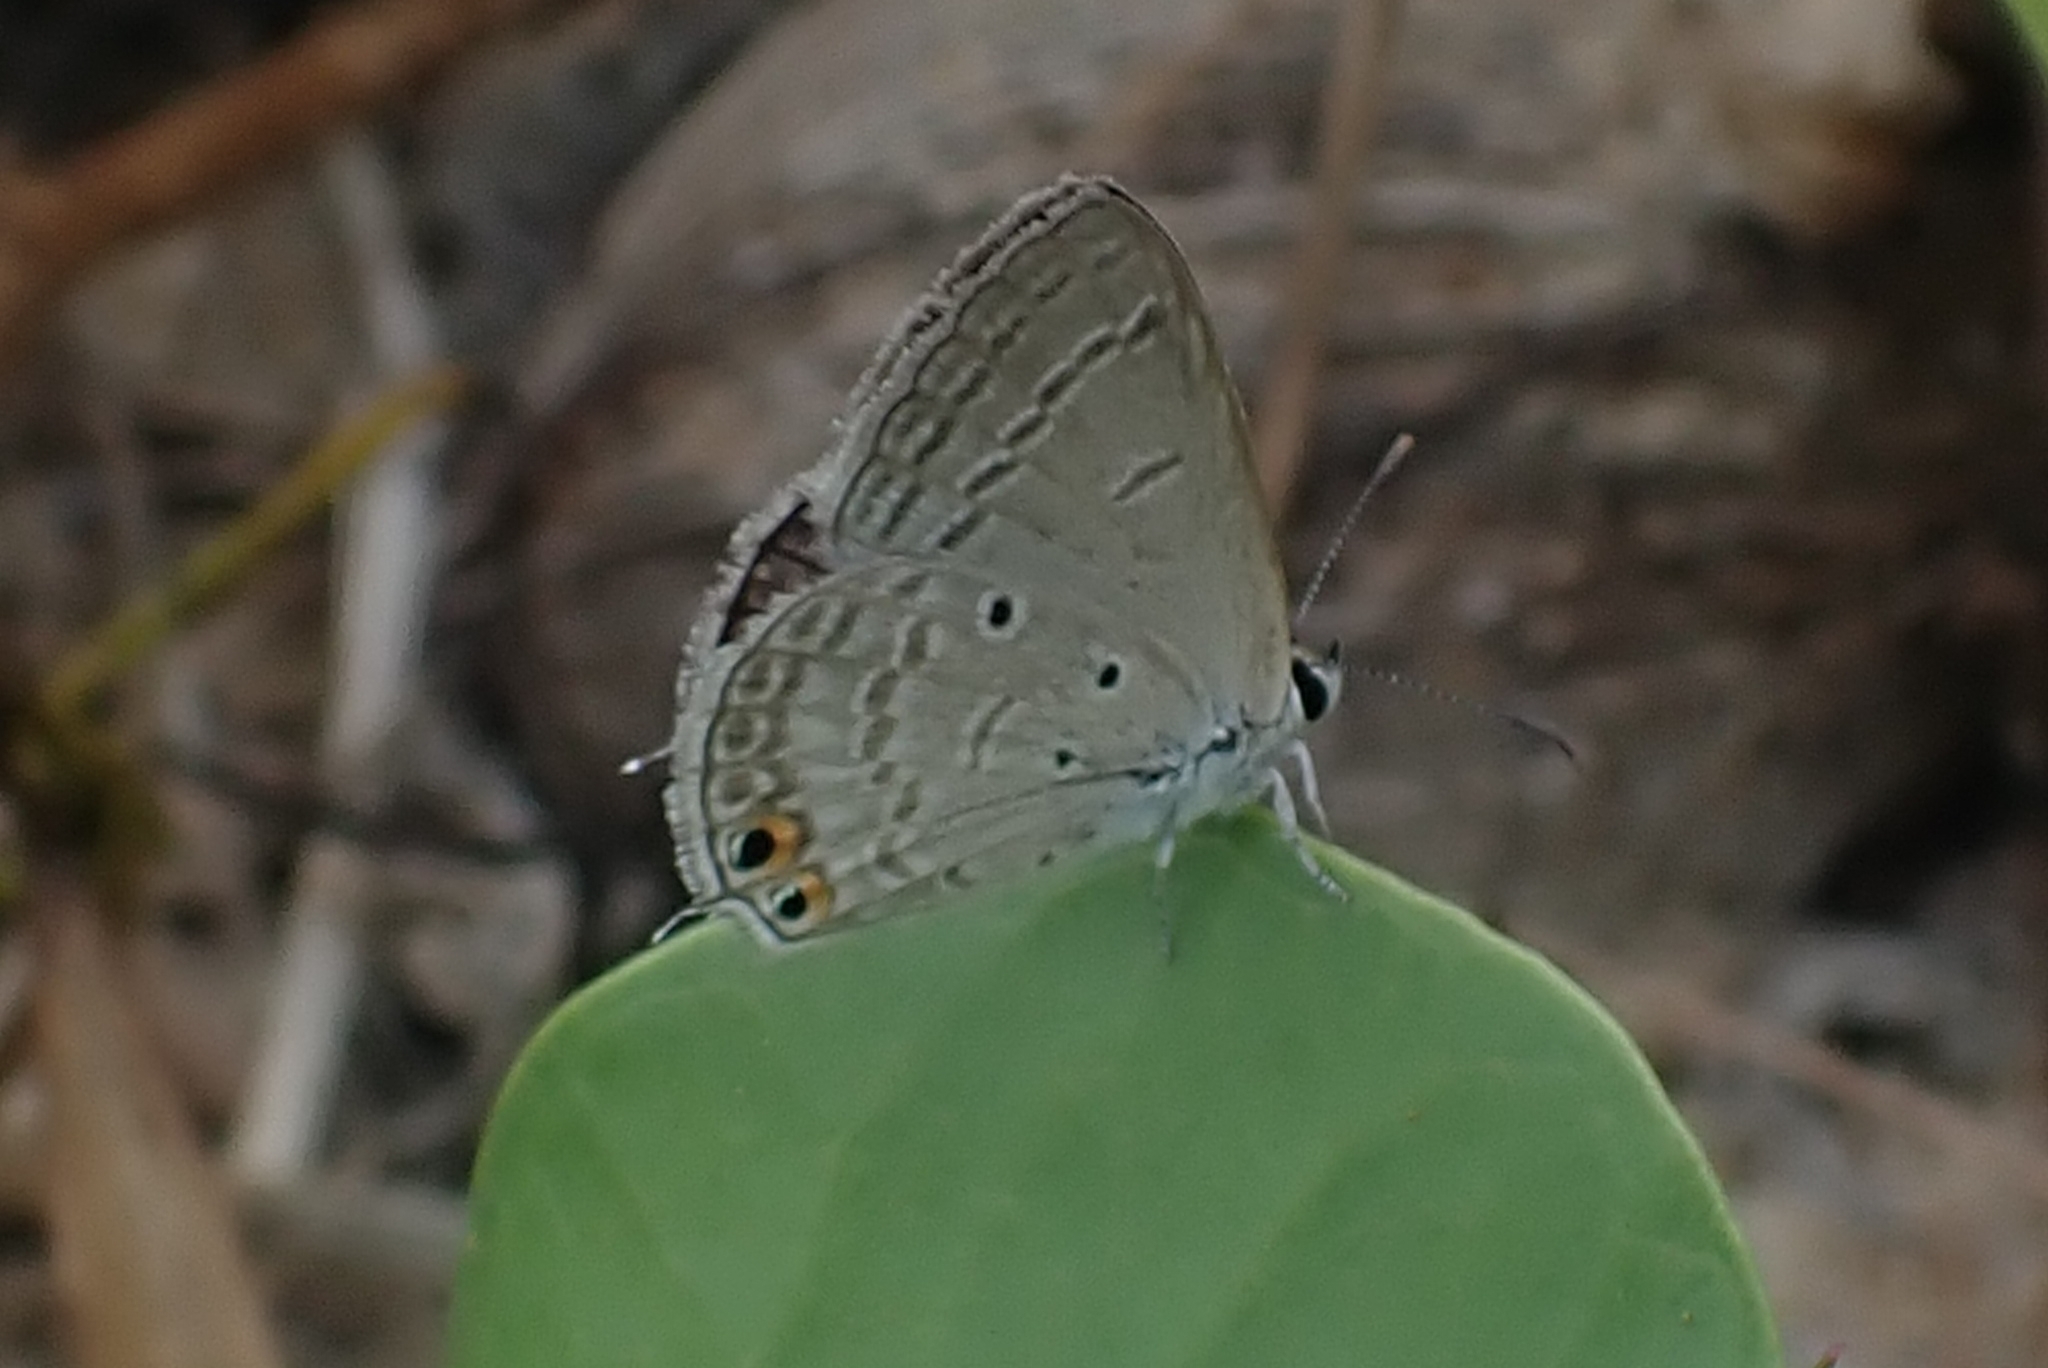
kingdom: Animalia
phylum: Arthropoda
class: Insecta
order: Lepidoptera
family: Lycaenidae
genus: Euchrysops
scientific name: Euchrysops cnejus
